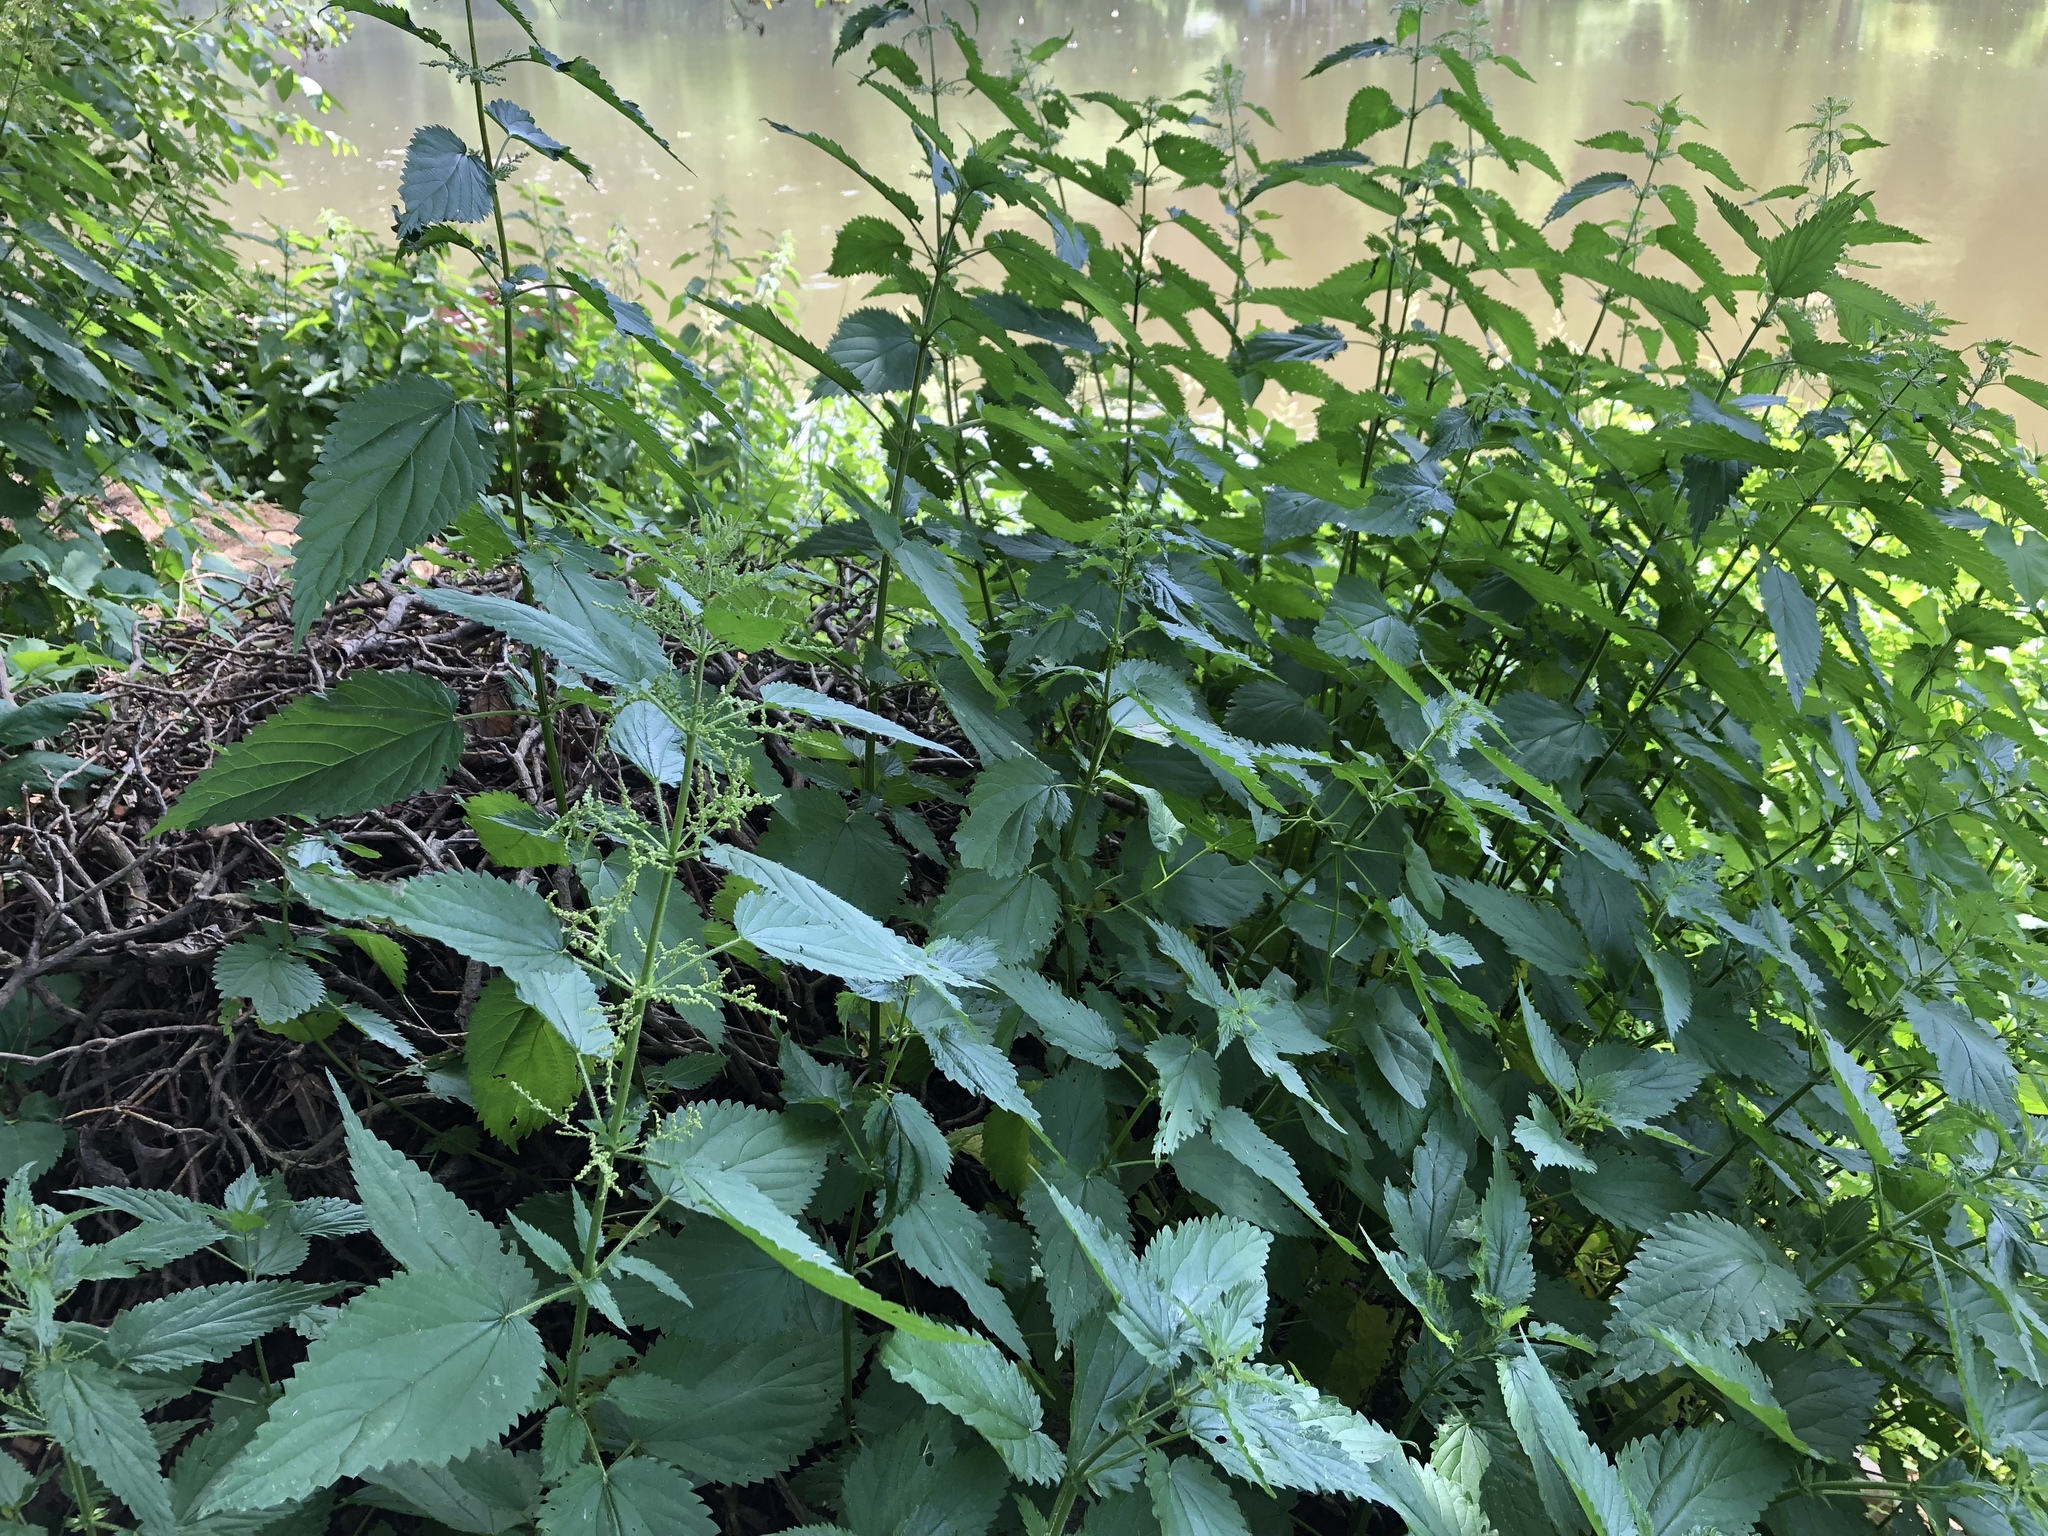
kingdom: Plantae
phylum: Tracheophyta
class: Magnoliopsida
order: Rosales
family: Urticaceae
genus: Urtica
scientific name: Urtica dioica
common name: Common nettle
